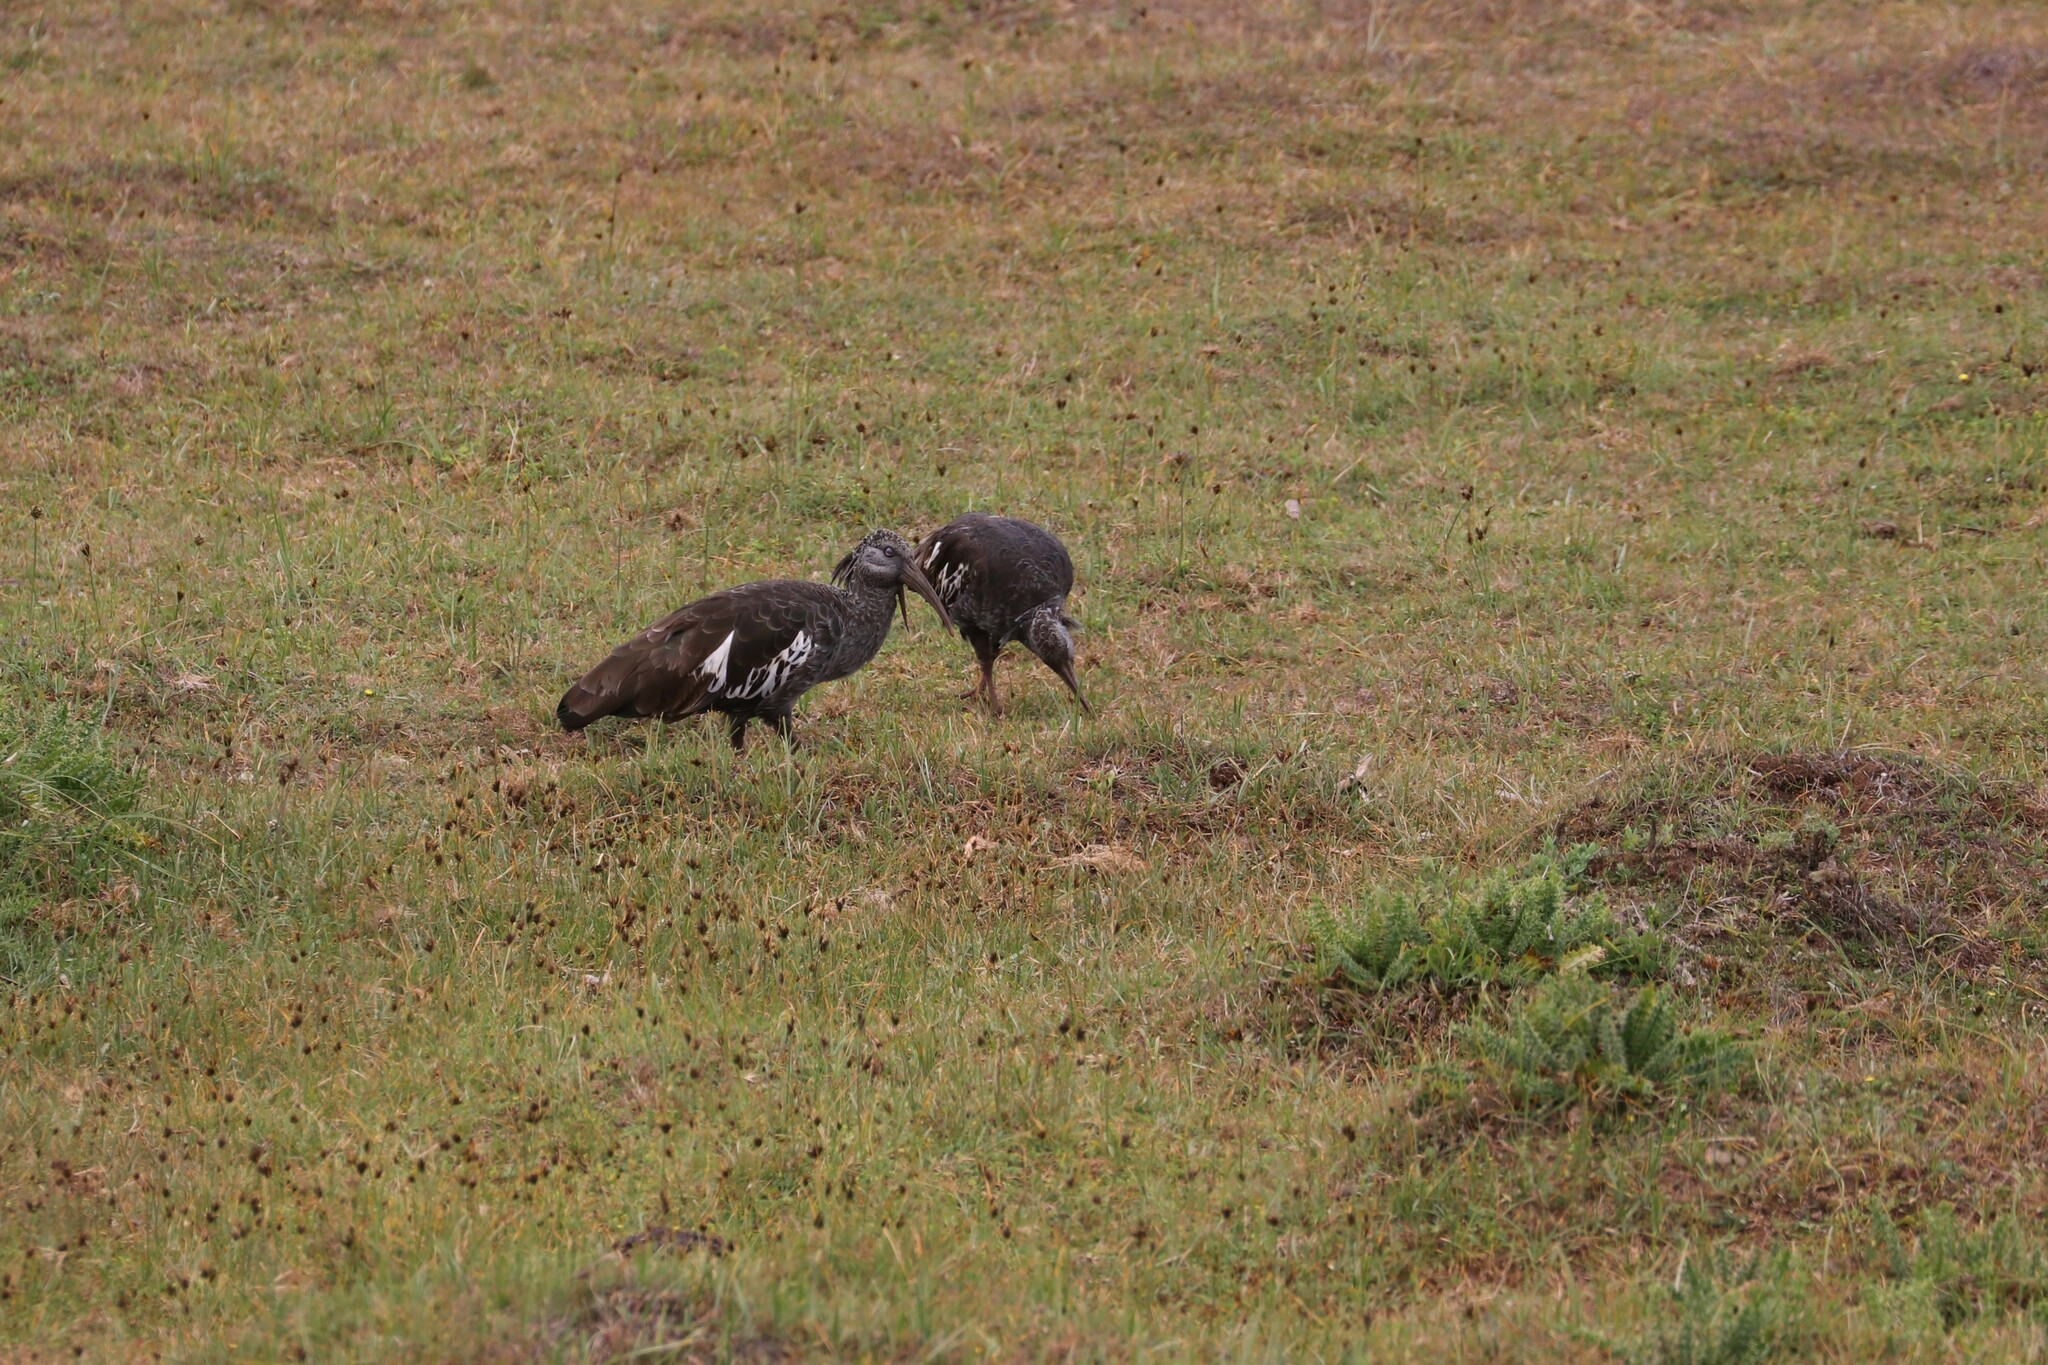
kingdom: Animalia
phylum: Chordata
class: Aves
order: Pelecaniformes
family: Threskiornithidae
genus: Bostrychia
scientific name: Bostrychia carunculata
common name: Wattled ibis
